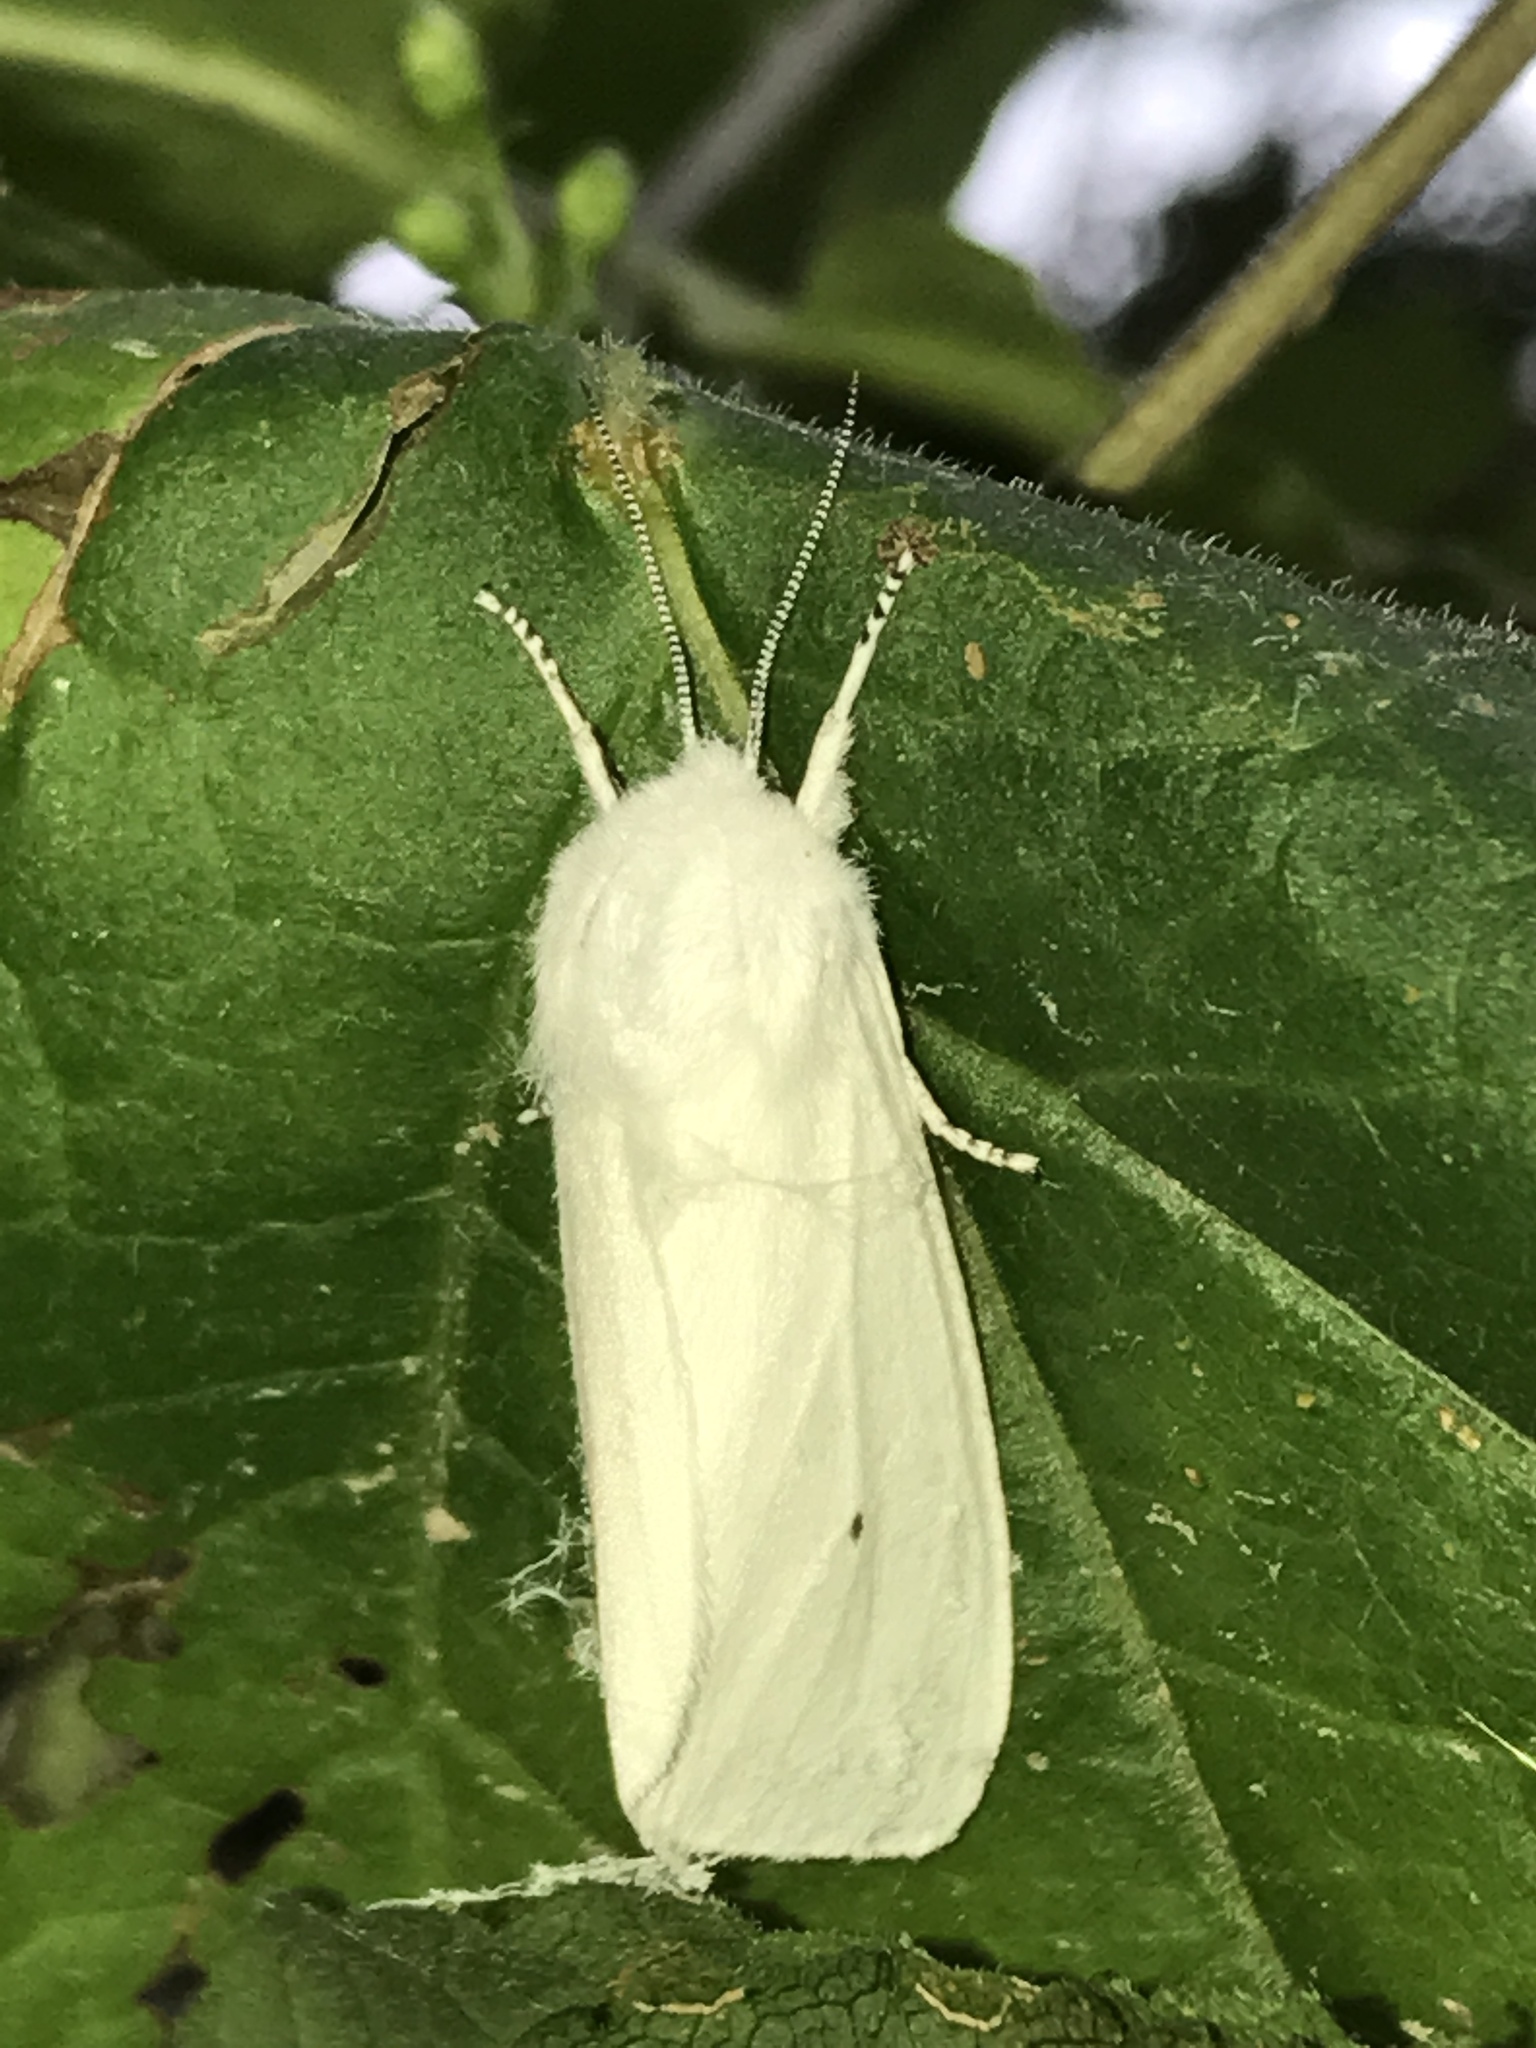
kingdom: Animalia
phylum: Arthropoda
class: Insecta
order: Lepidoptera
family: Erebidae
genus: Spilosoma
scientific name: Spilosoma virginica
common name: Virginia tiger moth
